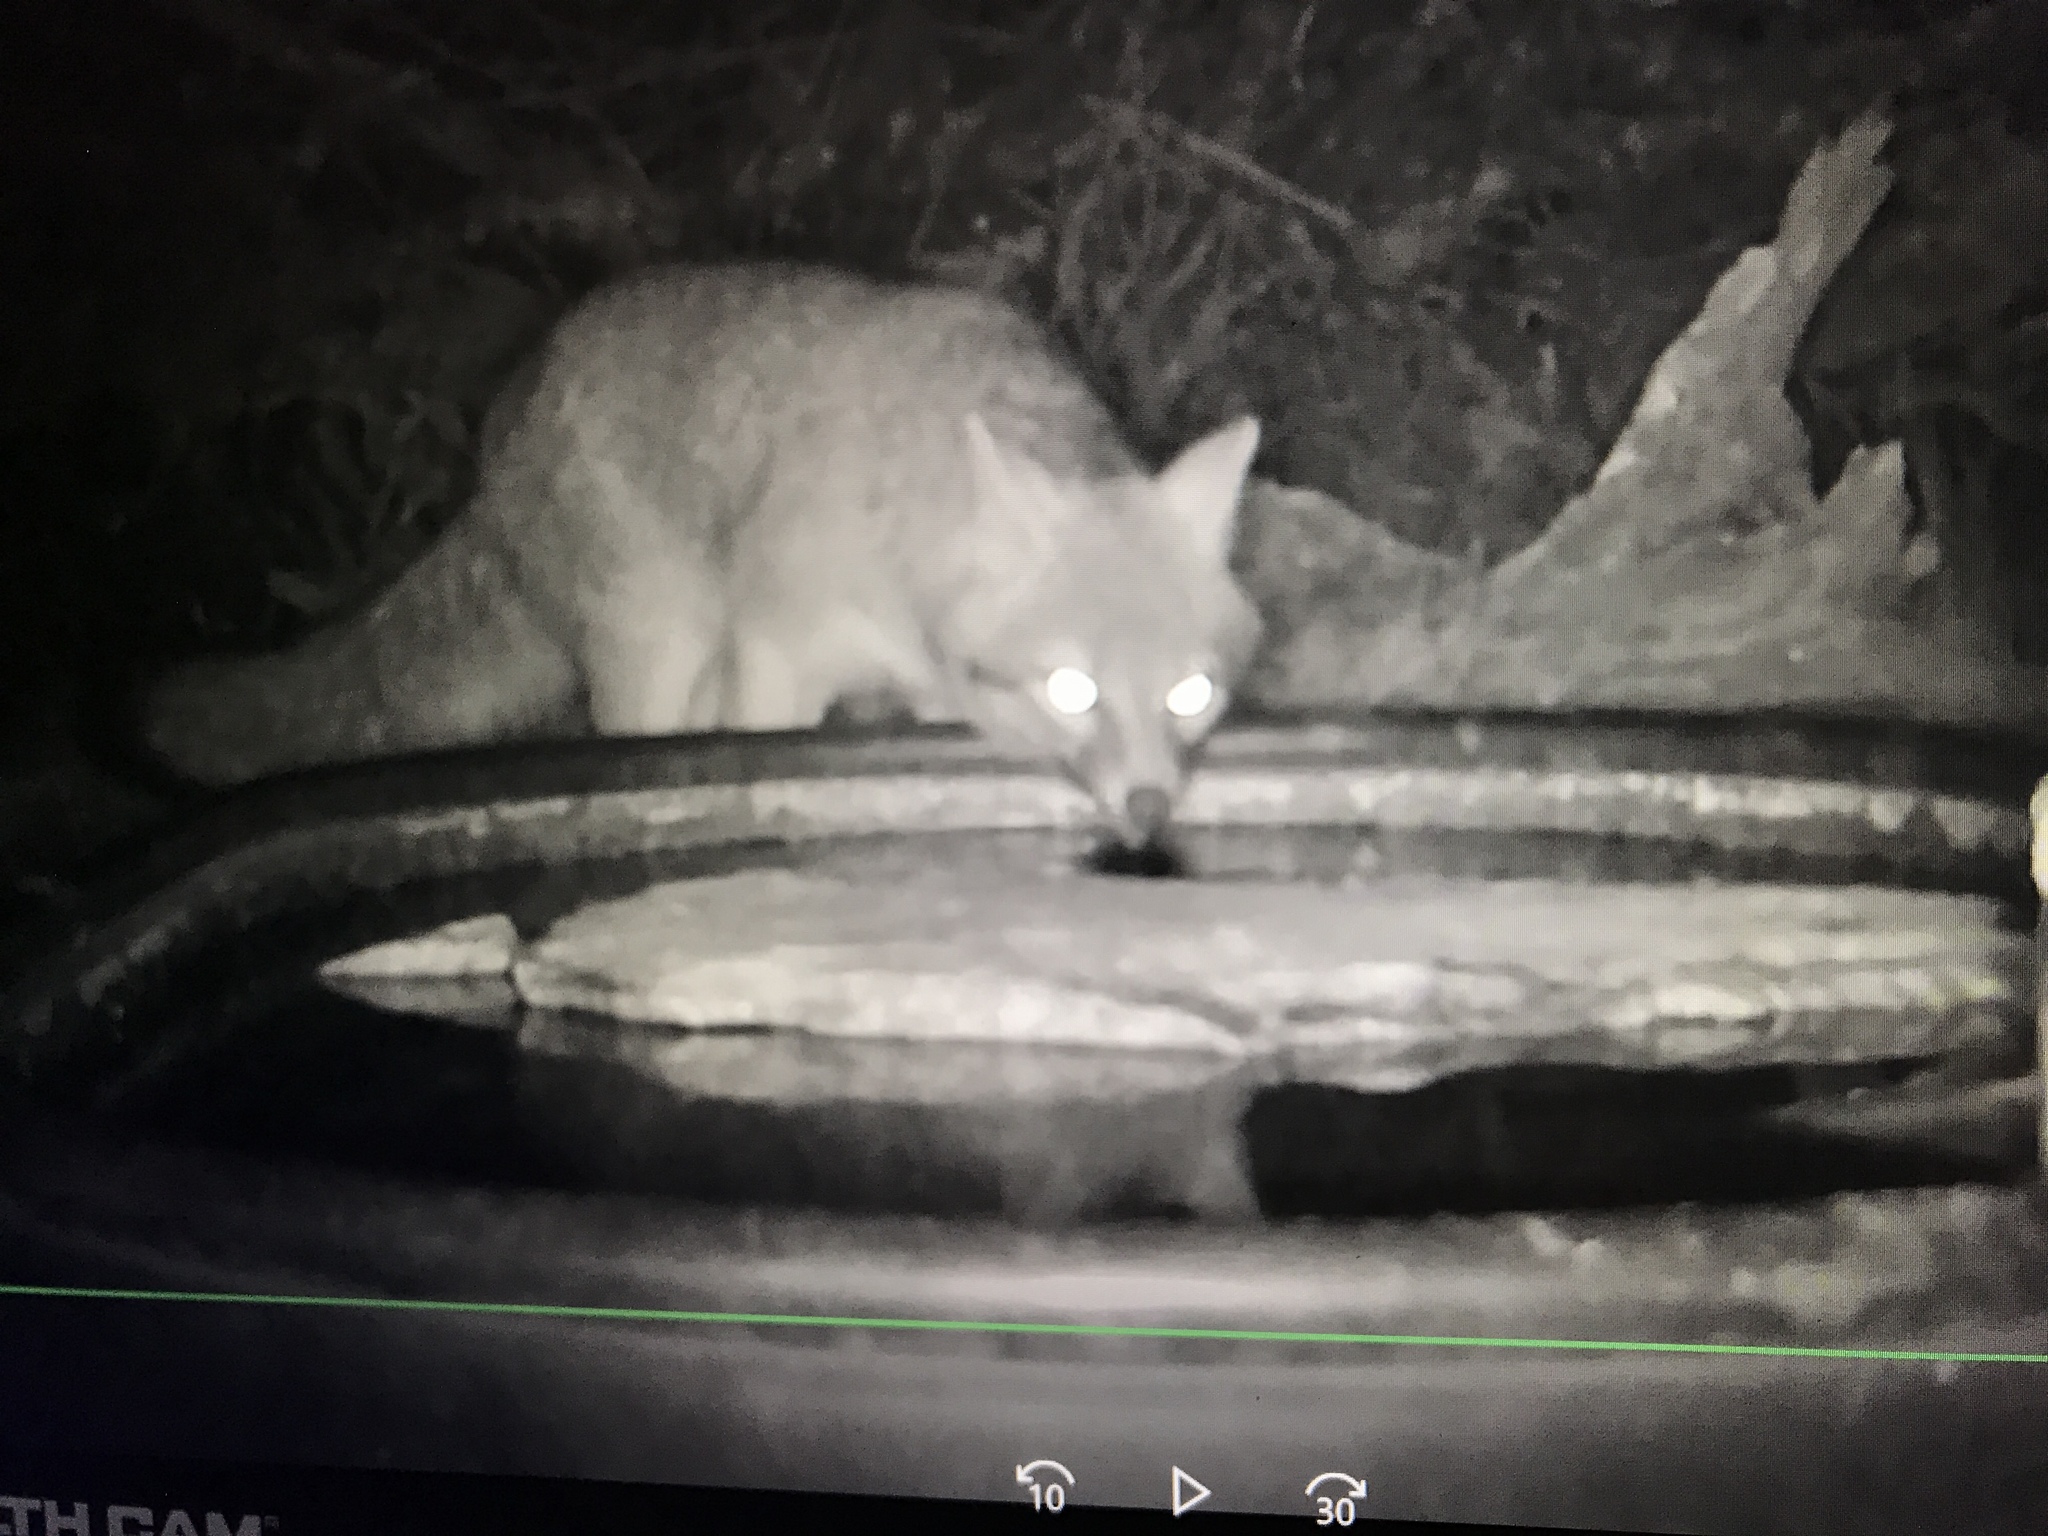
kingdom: Animalia
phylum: Chordata
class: Mammalia
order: Carnivora
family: Canidae
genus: Urocyon
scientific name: Urocyon cinereoargenteus
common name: Gray fox
